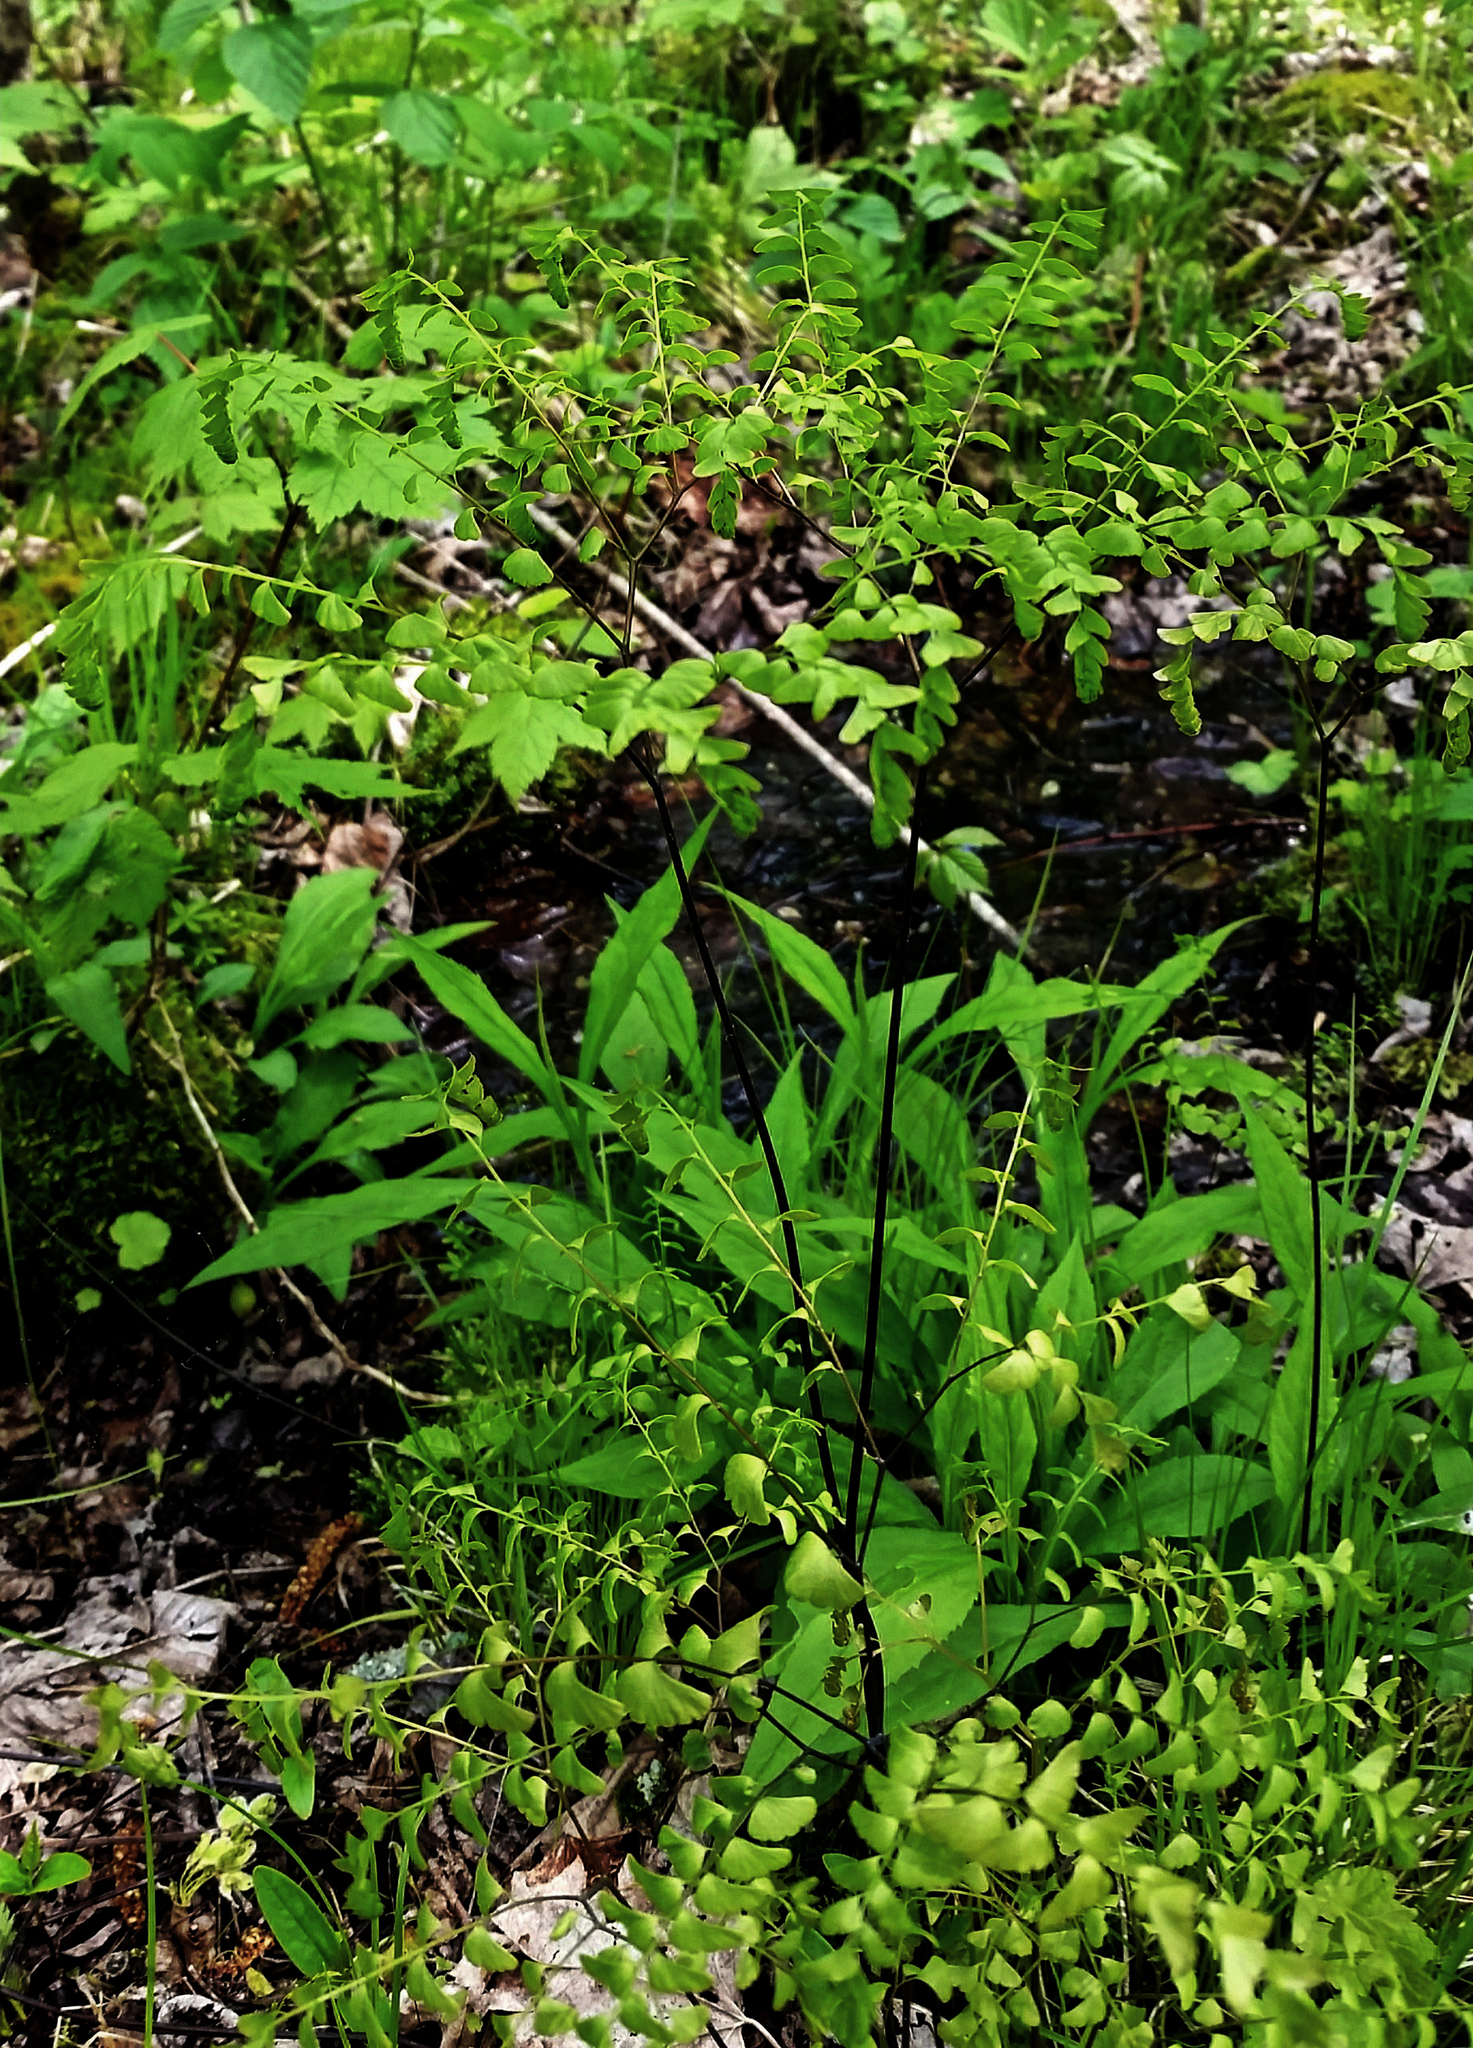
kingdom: Plantae
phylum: Tracheophyta
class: Polypodiopsida
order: Polypodiales
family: Pteridaceae
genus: Adiantum
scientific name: Adiantum pedatum
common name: Five-finger fern
